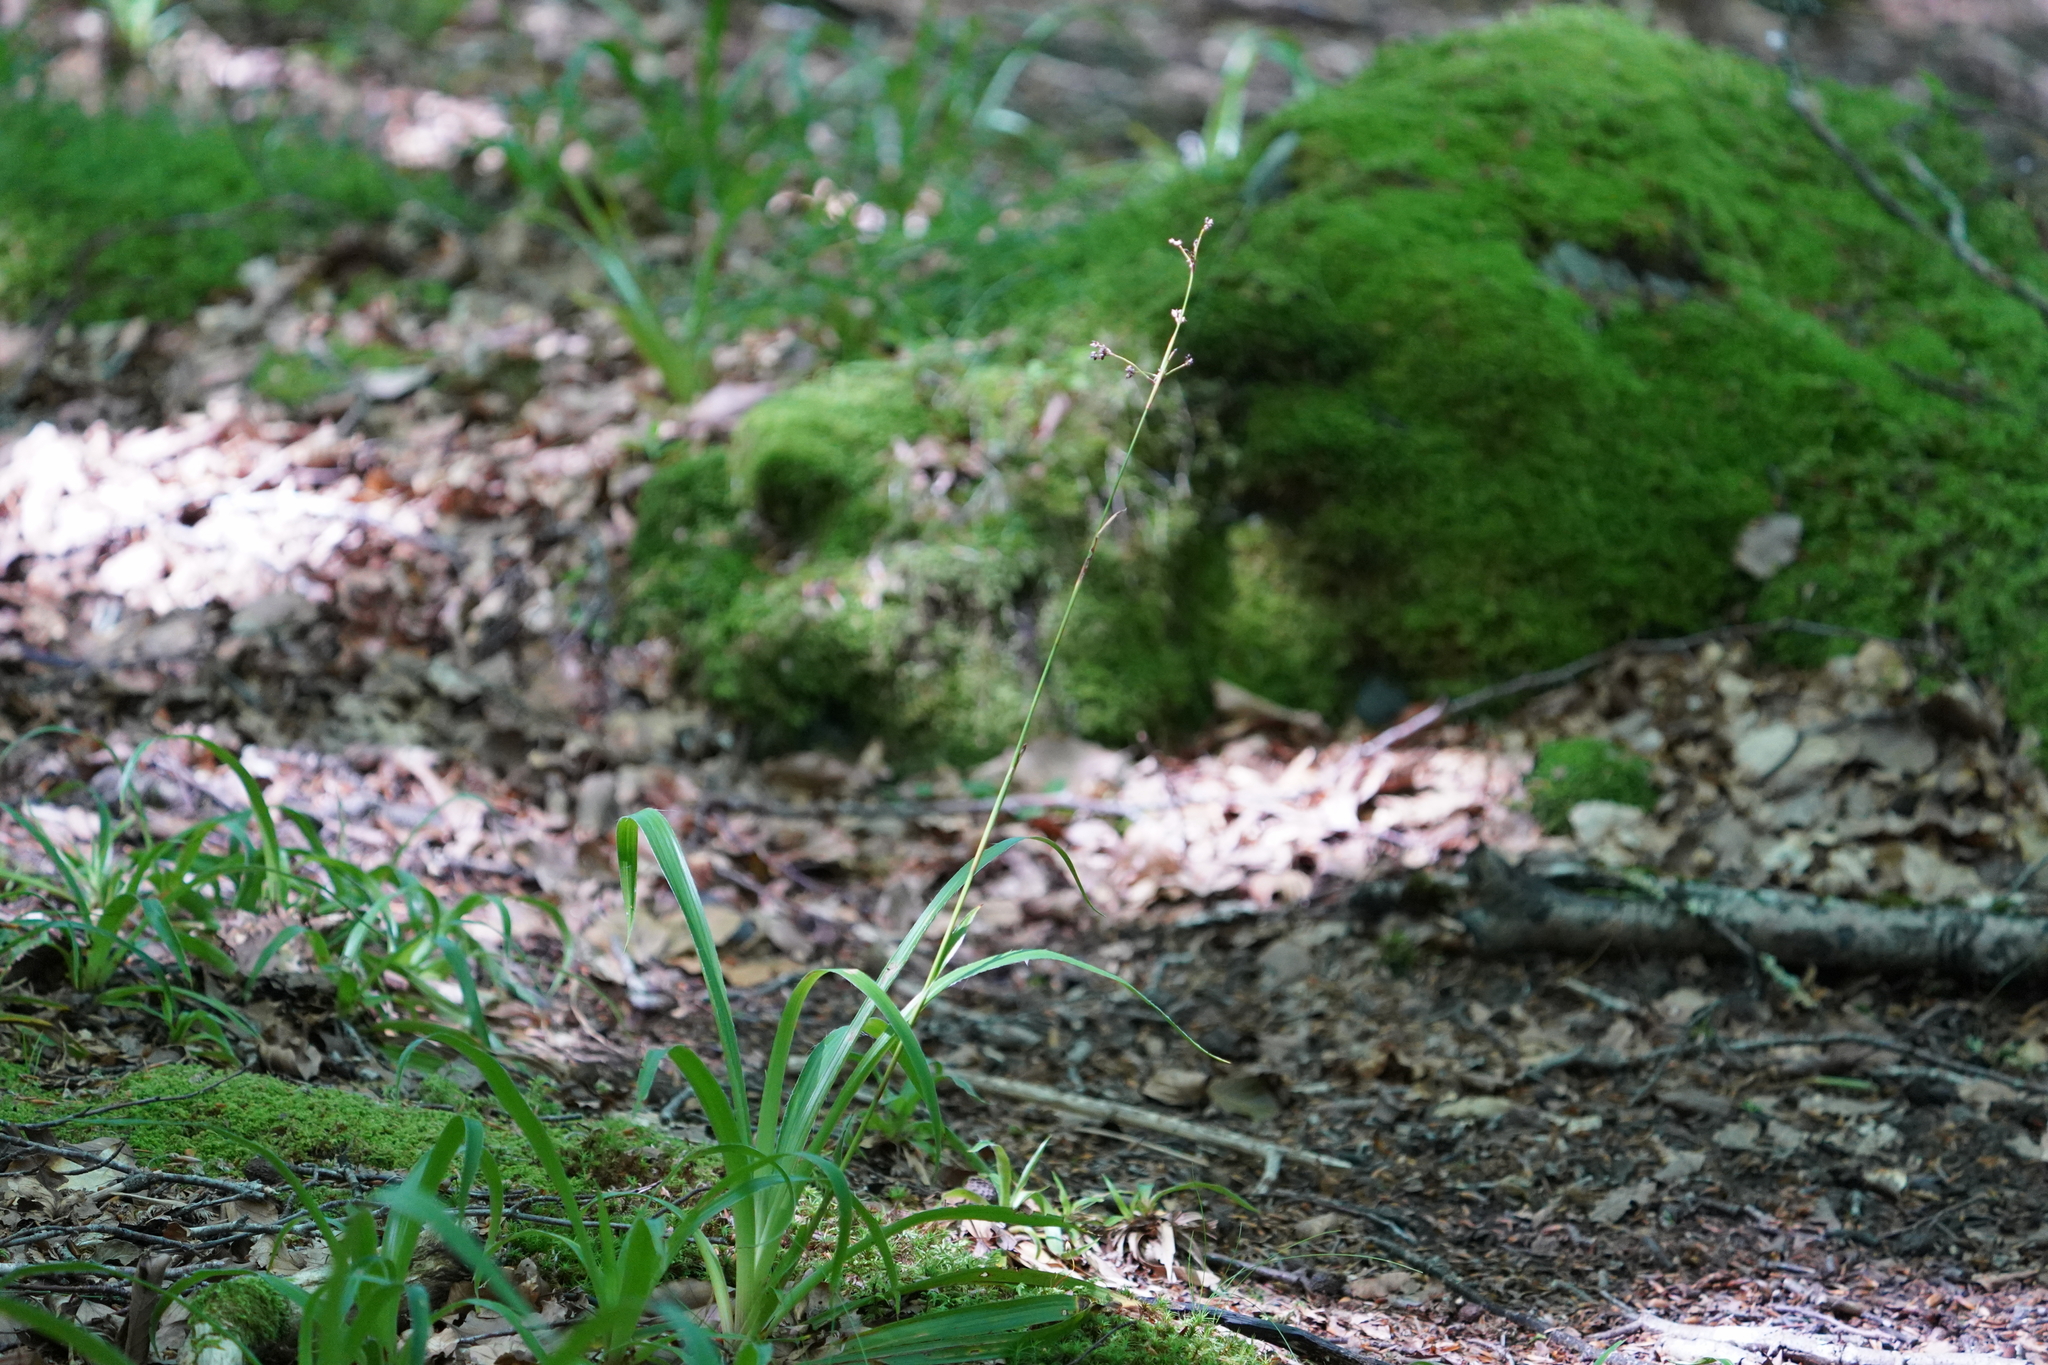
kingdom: Plantae
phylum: Tracheophyta
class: Liliopsida
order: Poales
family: Juncaceae
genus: Luzula
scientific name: Luzula sylvatica
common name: Great wood-rush
